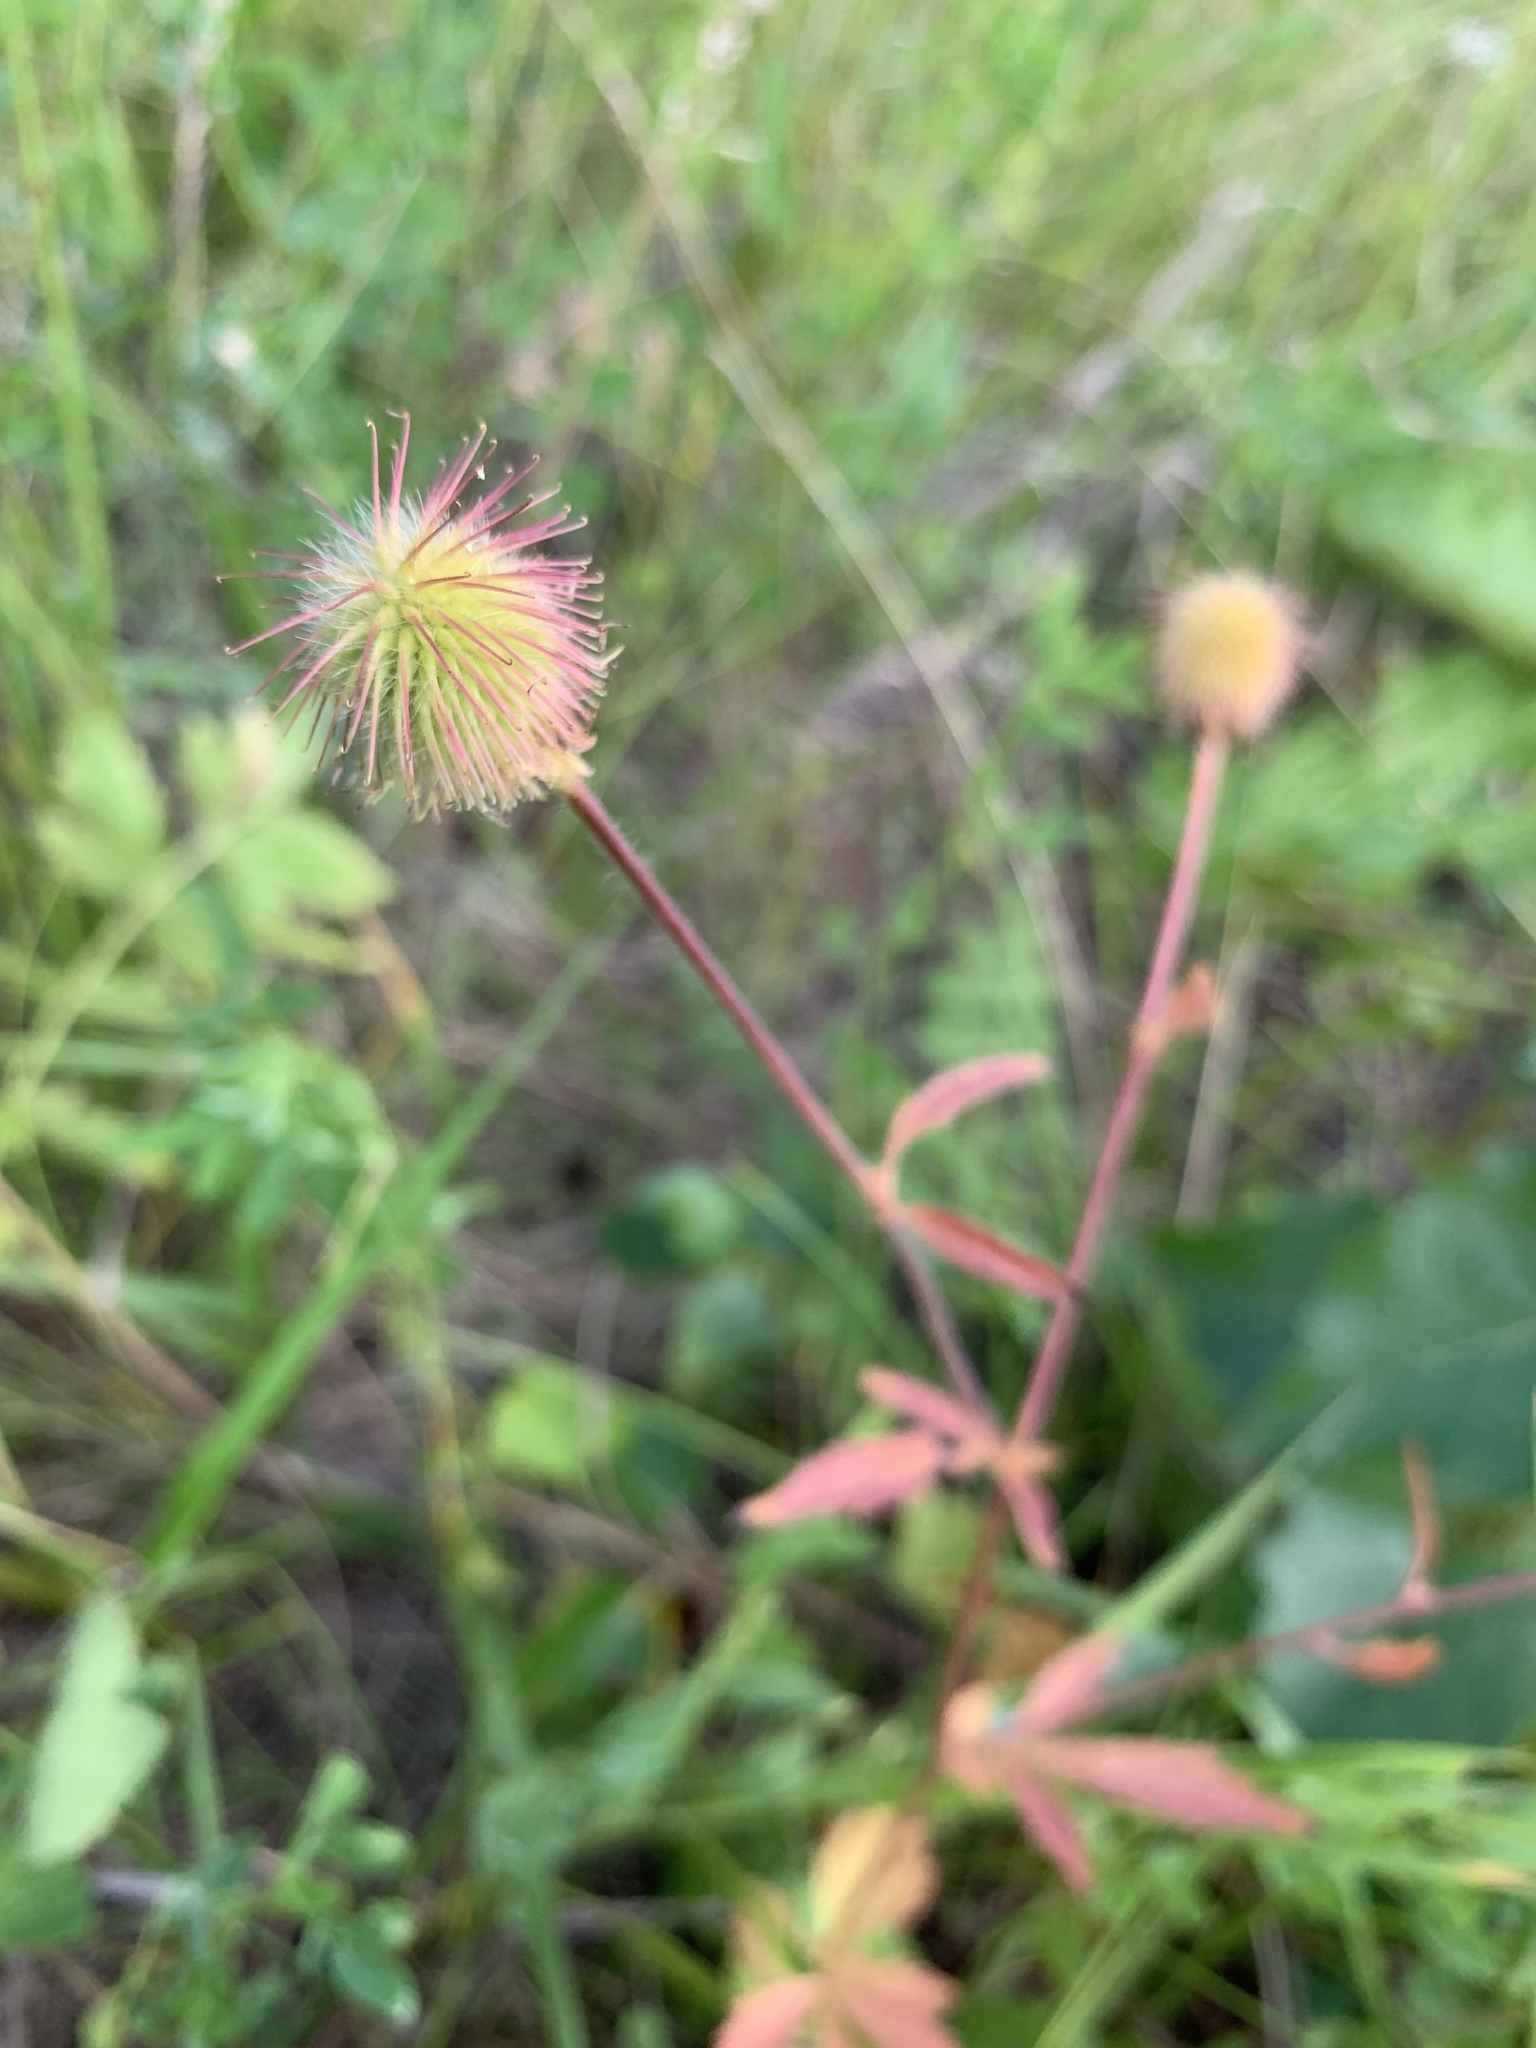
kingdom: Plantae
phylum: Tracheophyta
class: Magnoliopsida
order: Rosales
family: Rosaceae
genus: Geum
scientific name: Geum aleppicum
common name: Yellow avens
